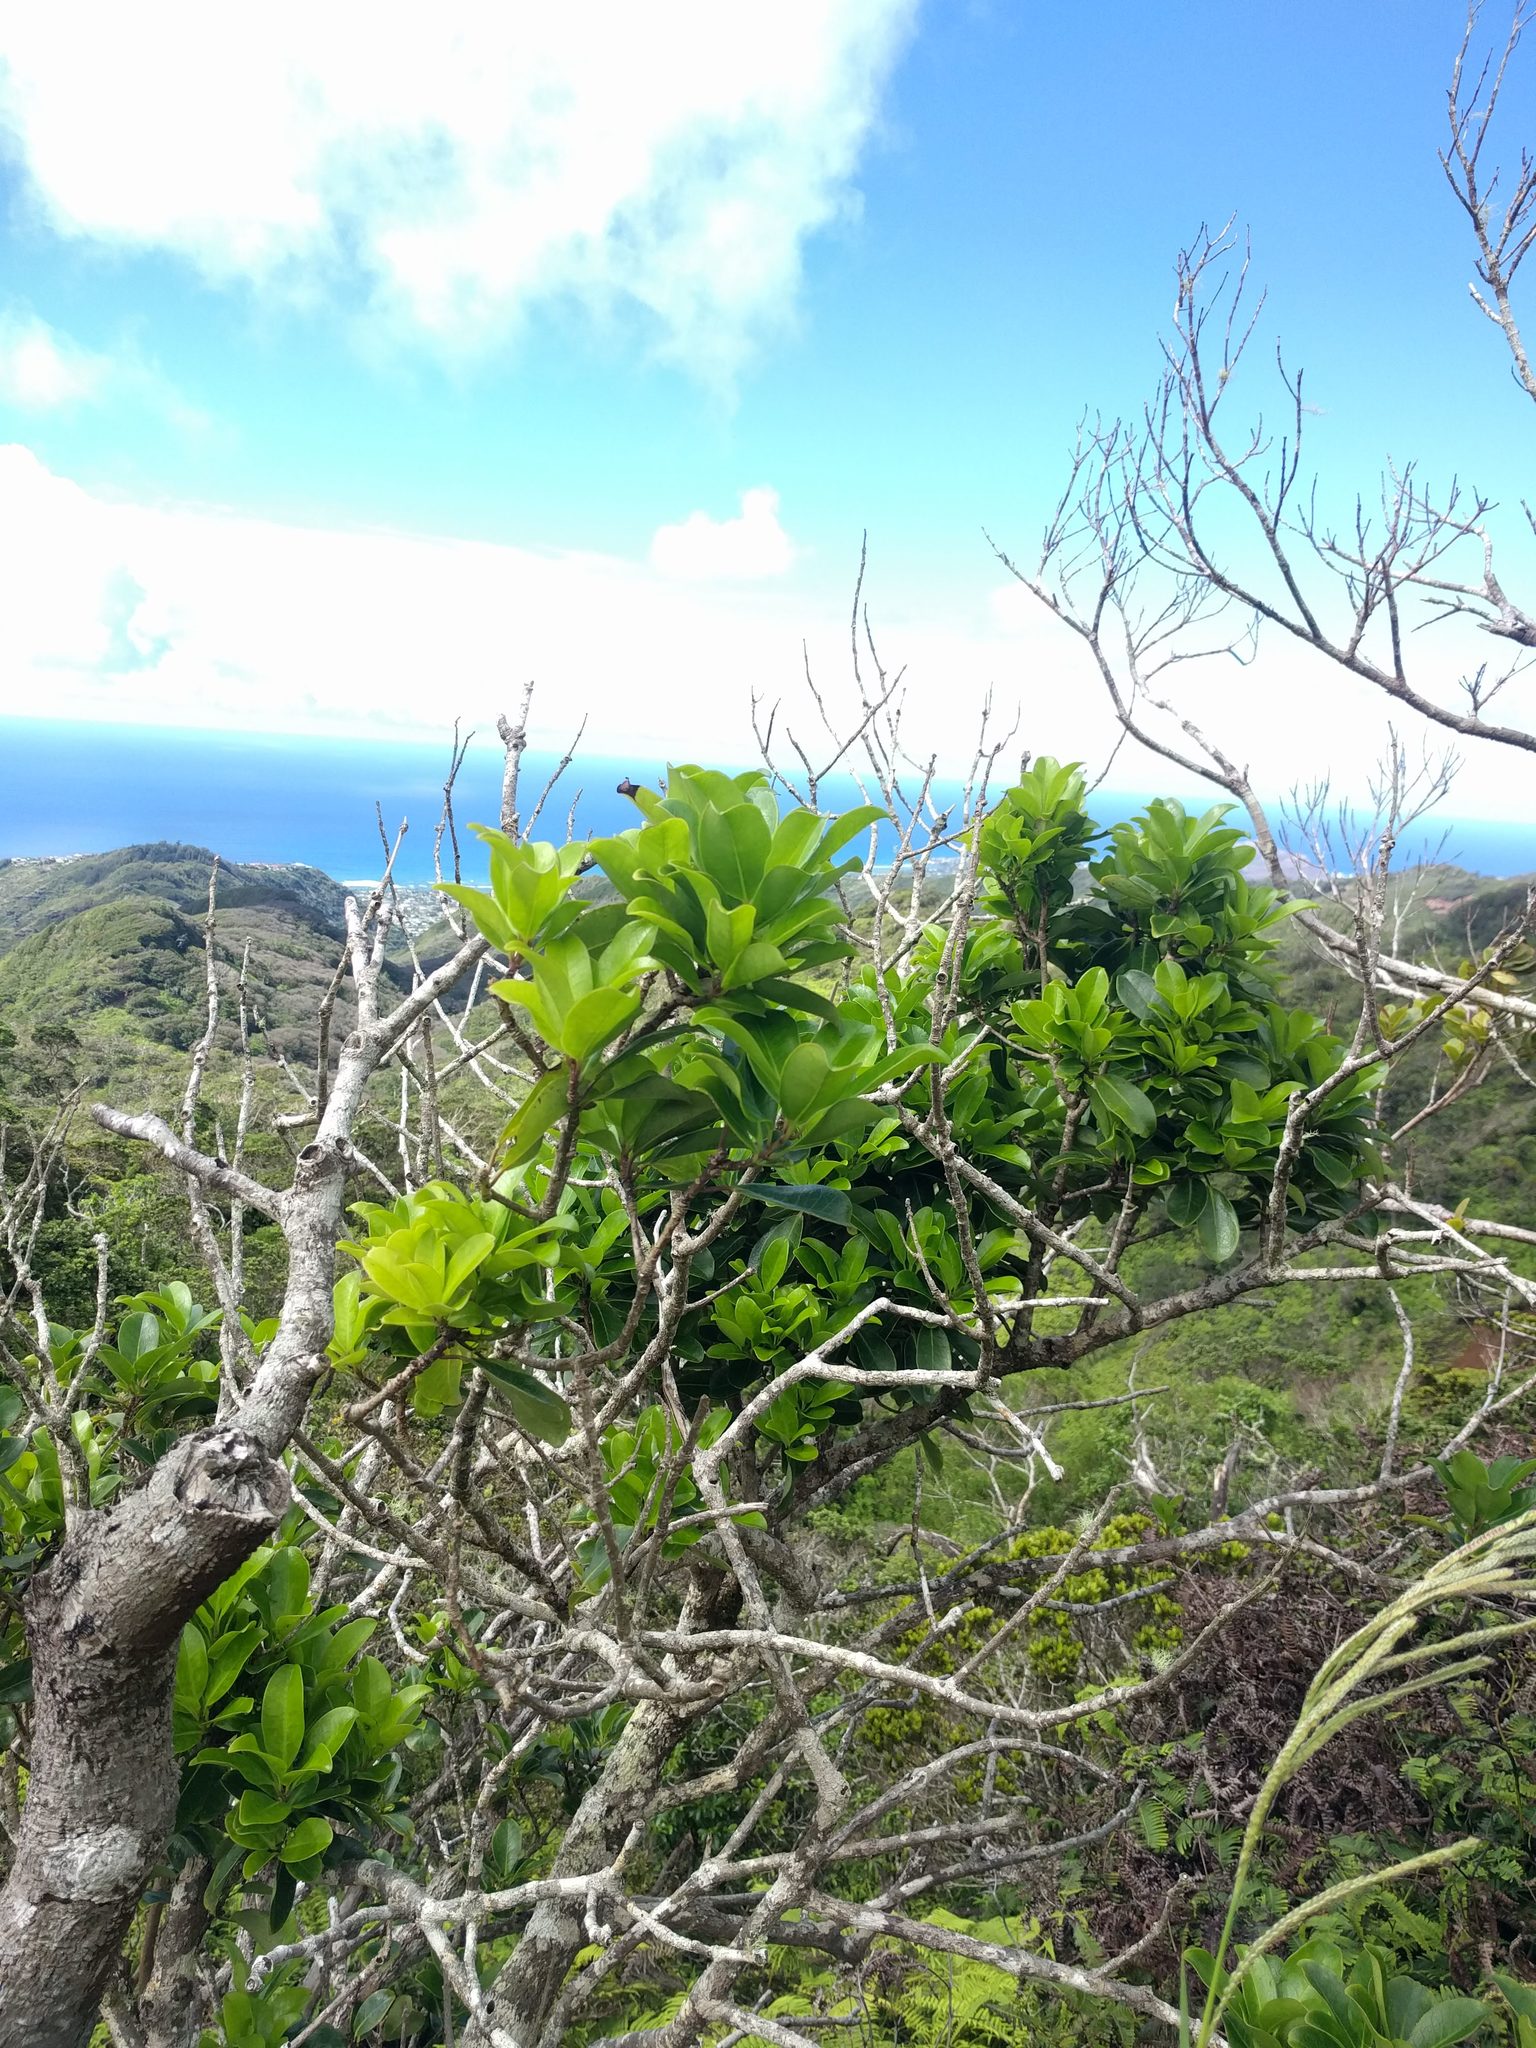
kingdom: Plantae
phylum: Tracheophyta
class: Magnoliopsida
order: Aquifoliales
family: Aquifoliaceae
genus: Ilex
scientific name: Ilex anomala
